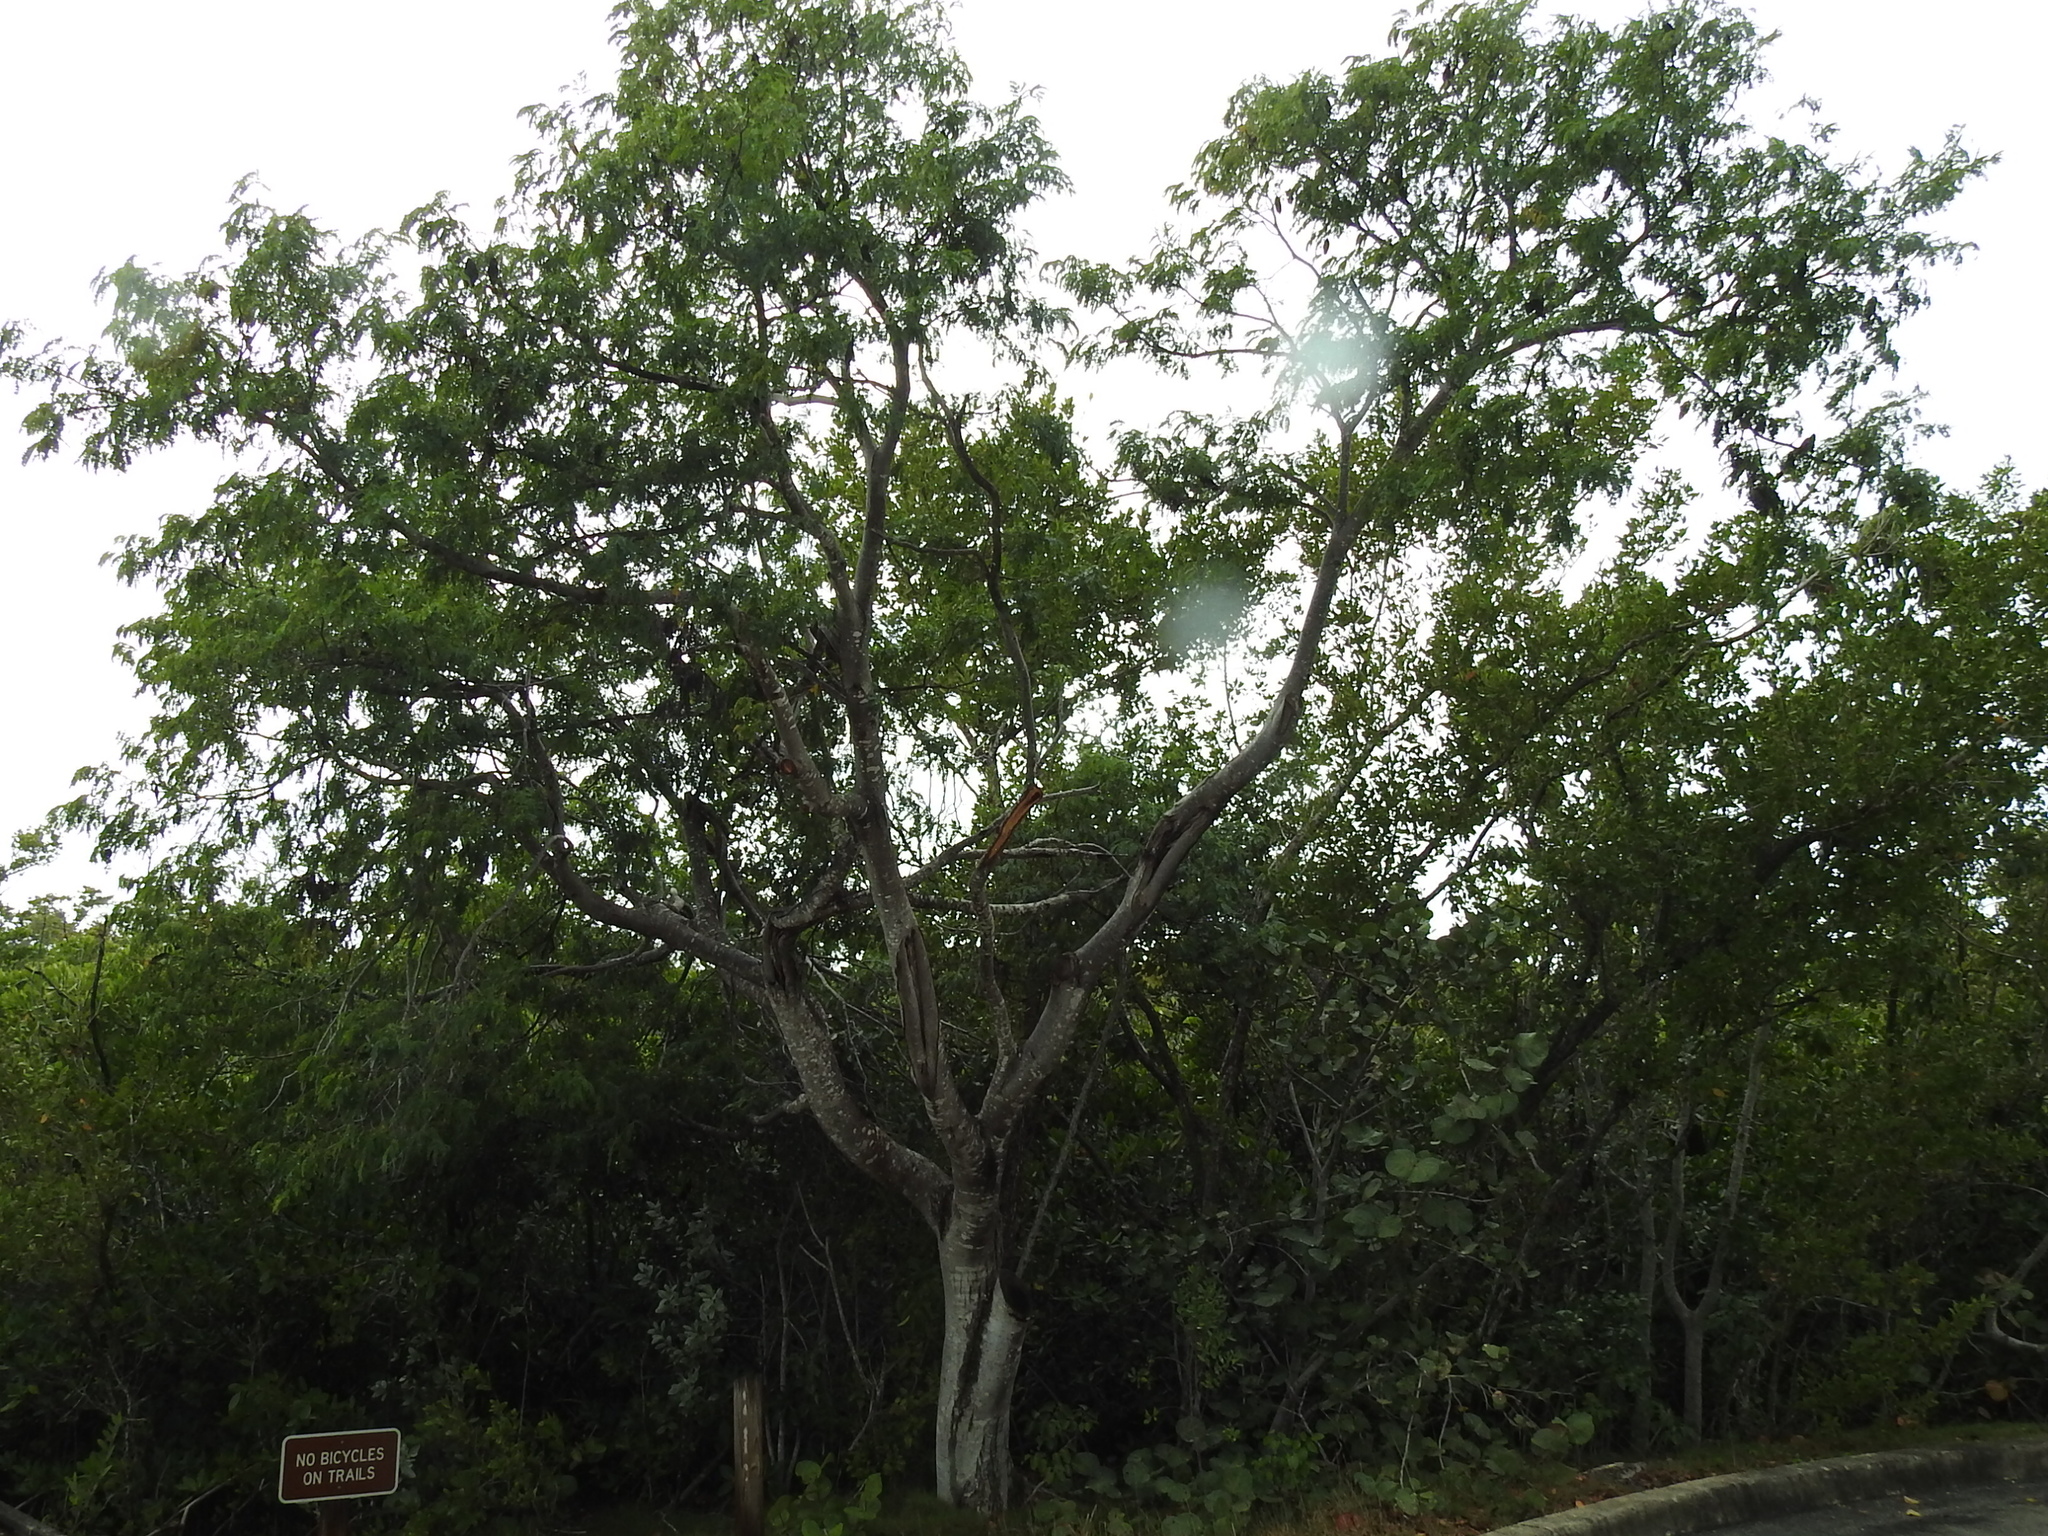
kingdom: Plantae
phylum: Tracheophyta
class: Magnoliopsida
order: Fabales
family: Fabaceae
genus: Lysiloma
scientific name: Lysiloma latisiliquum
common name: Wild tamarind
